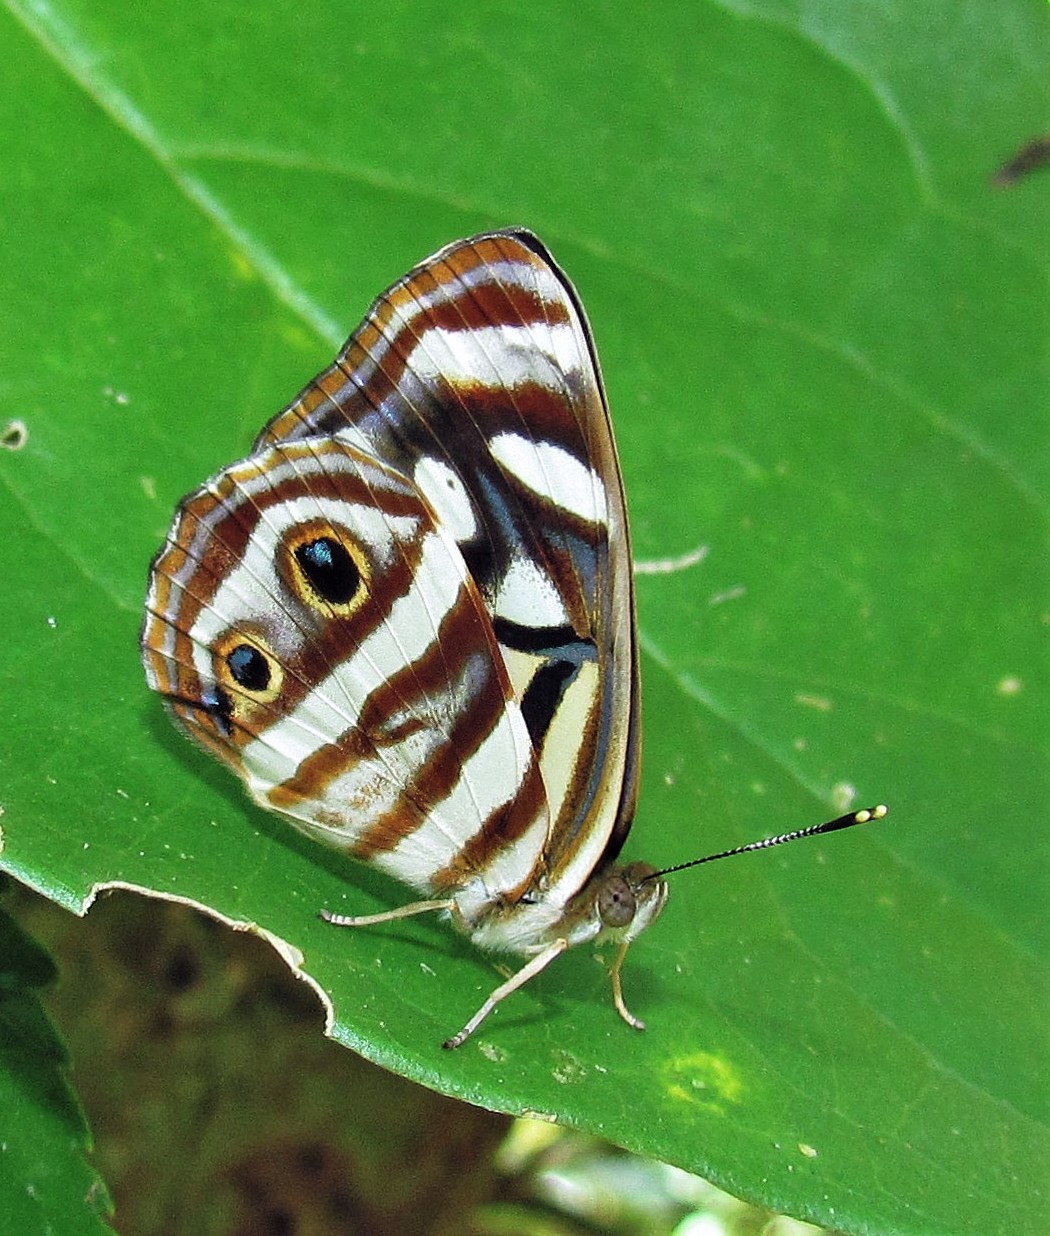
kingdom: Animalia
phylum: Arthropoda
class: Insecta
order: Lepidoptera
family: Nymphalidae
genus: Dynamine
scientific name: Dynamine mylitta
